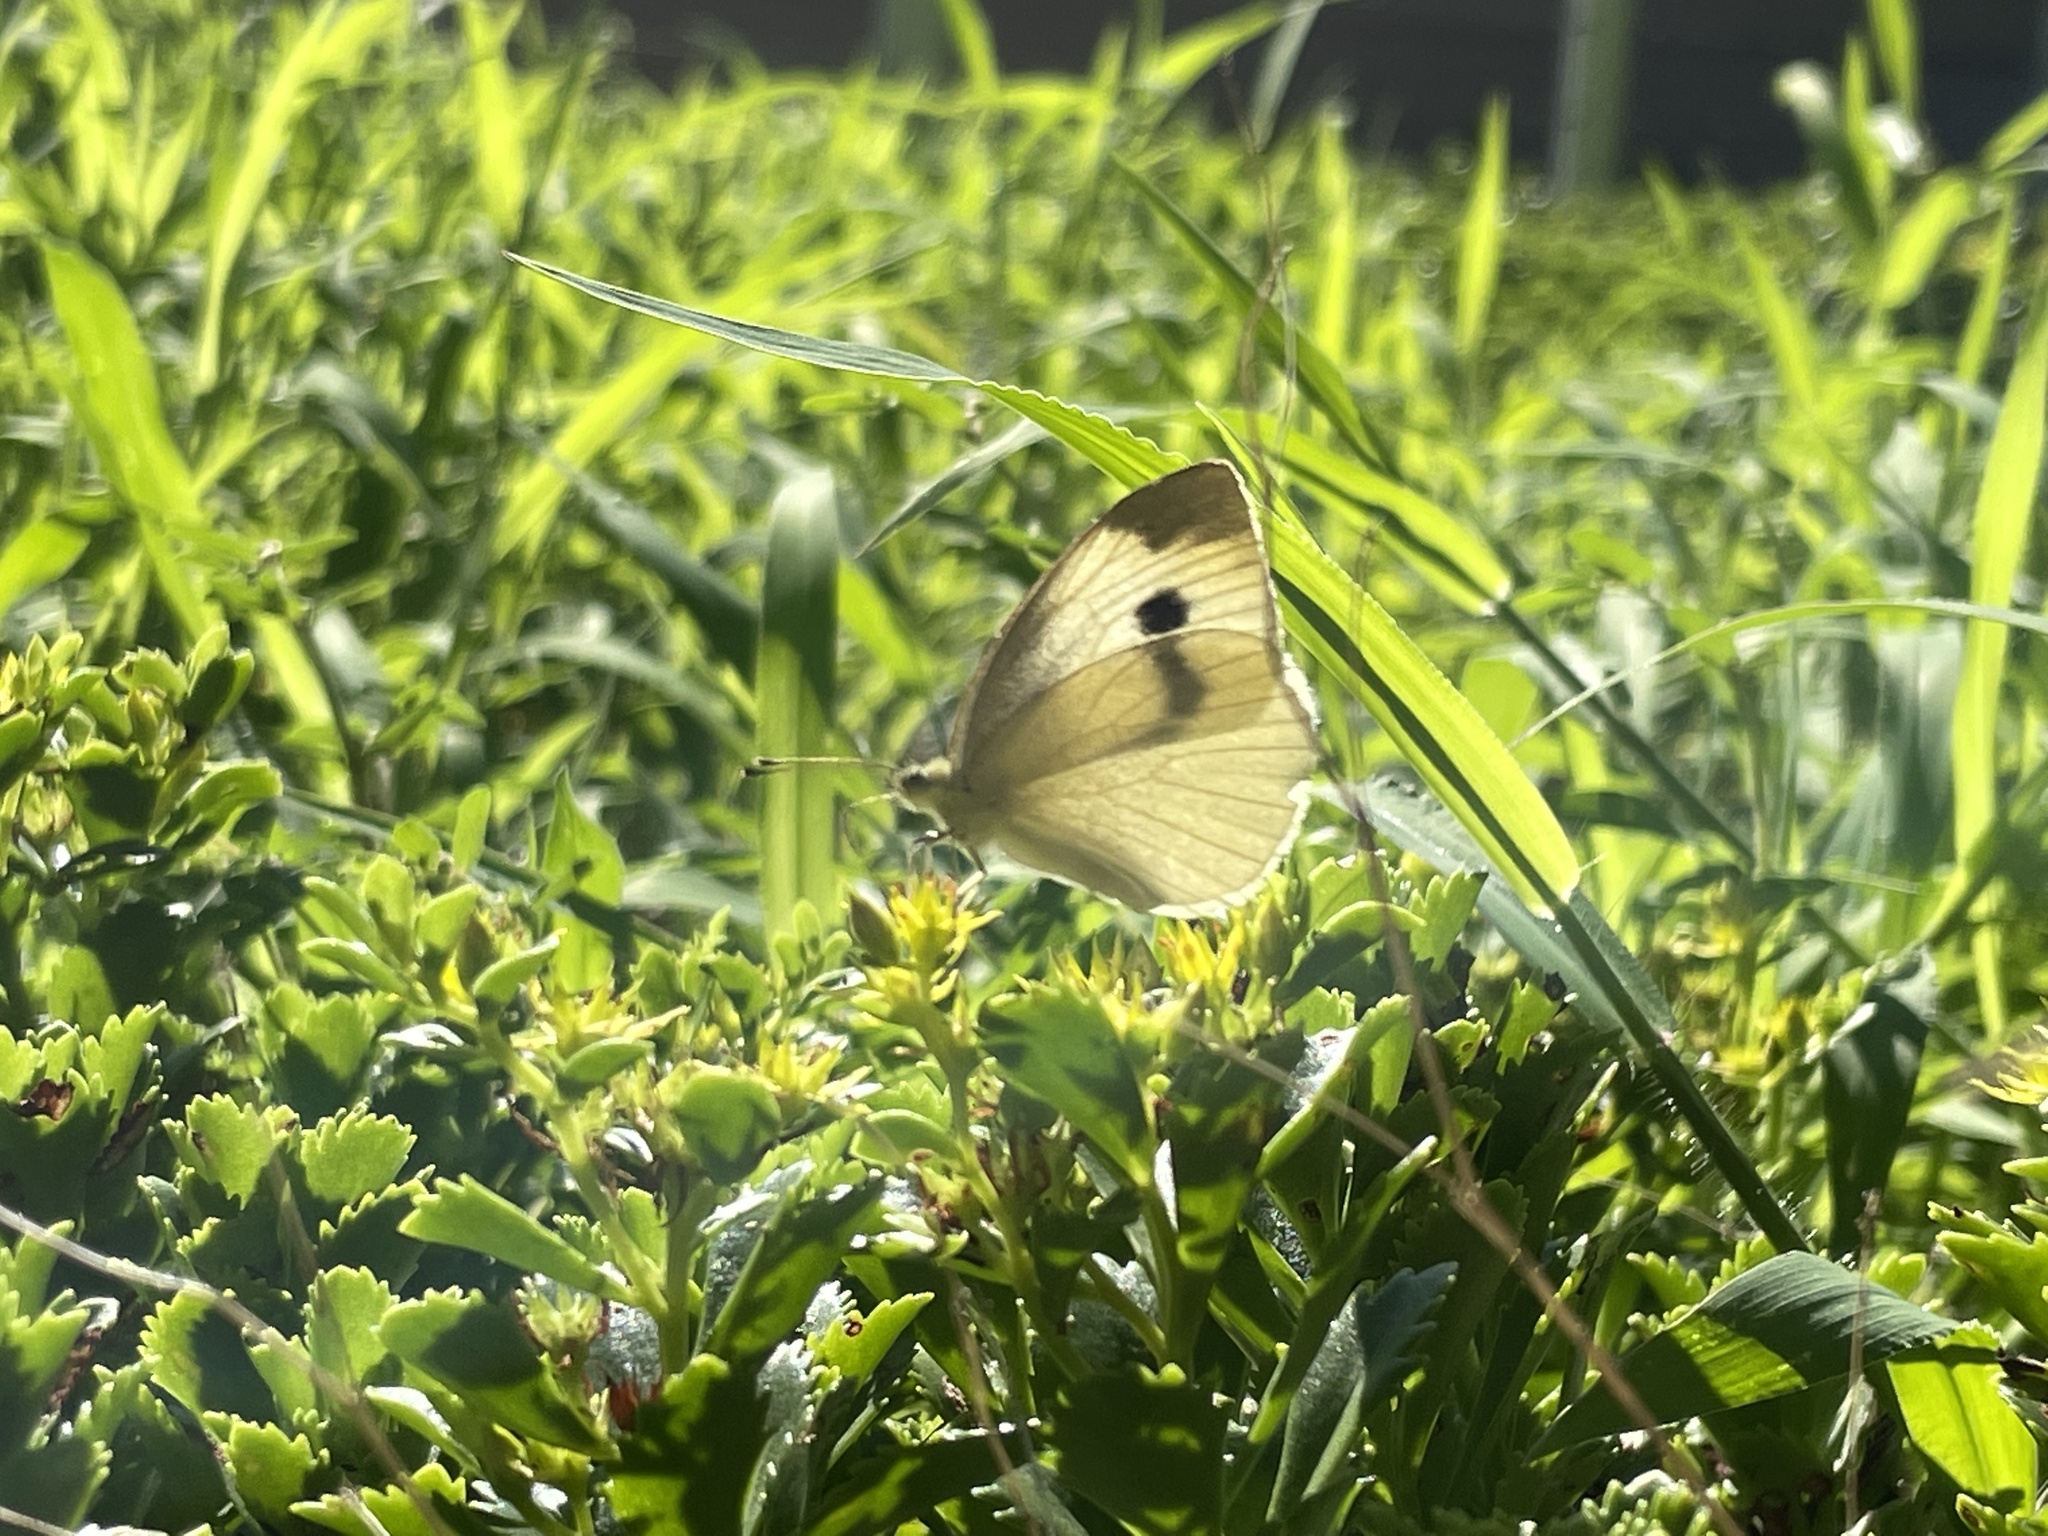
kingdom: Animalia
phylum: Arthropoda
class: Insecta
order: Lepidoptera
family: Pieridae
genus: Pieris
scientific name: Pieris rapae
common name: Small white
